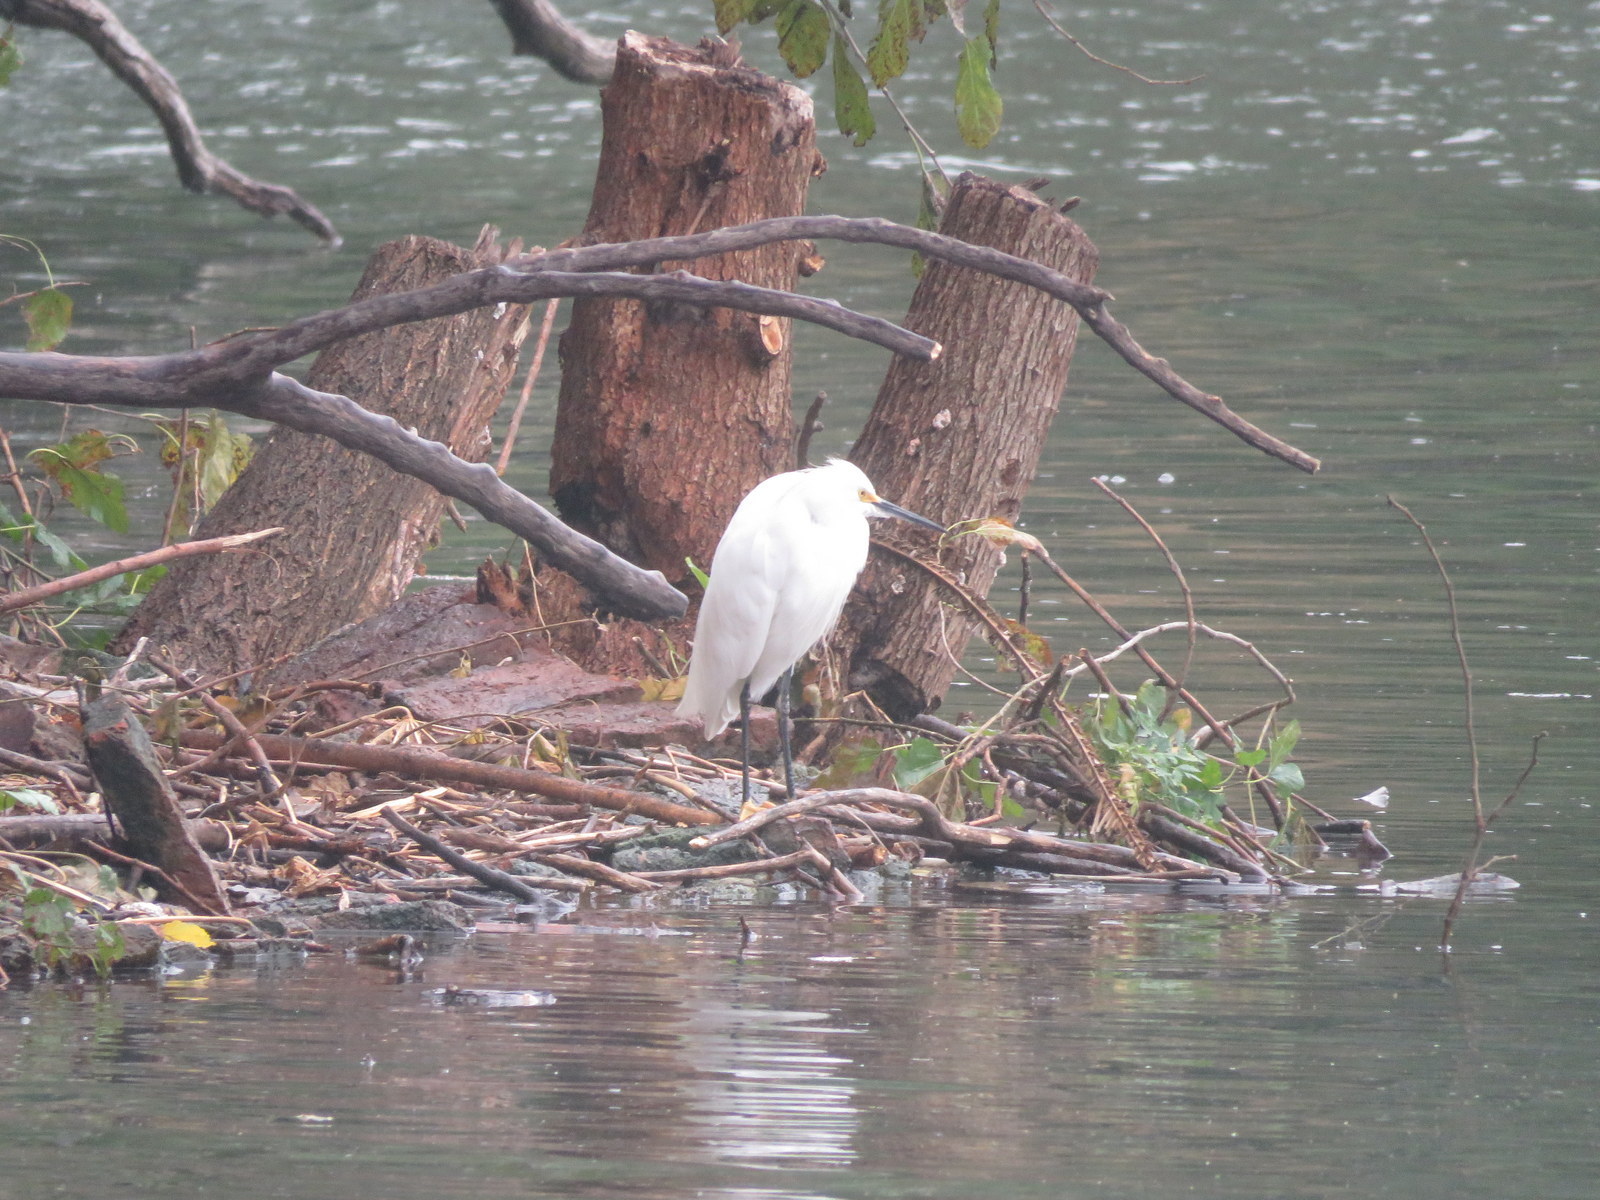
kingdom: Animalia
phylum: Chordata
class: Aves
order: Pelecaniformes
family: Ardeidae
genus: Egretta
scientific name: Egretta thula
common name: Snowy egret
